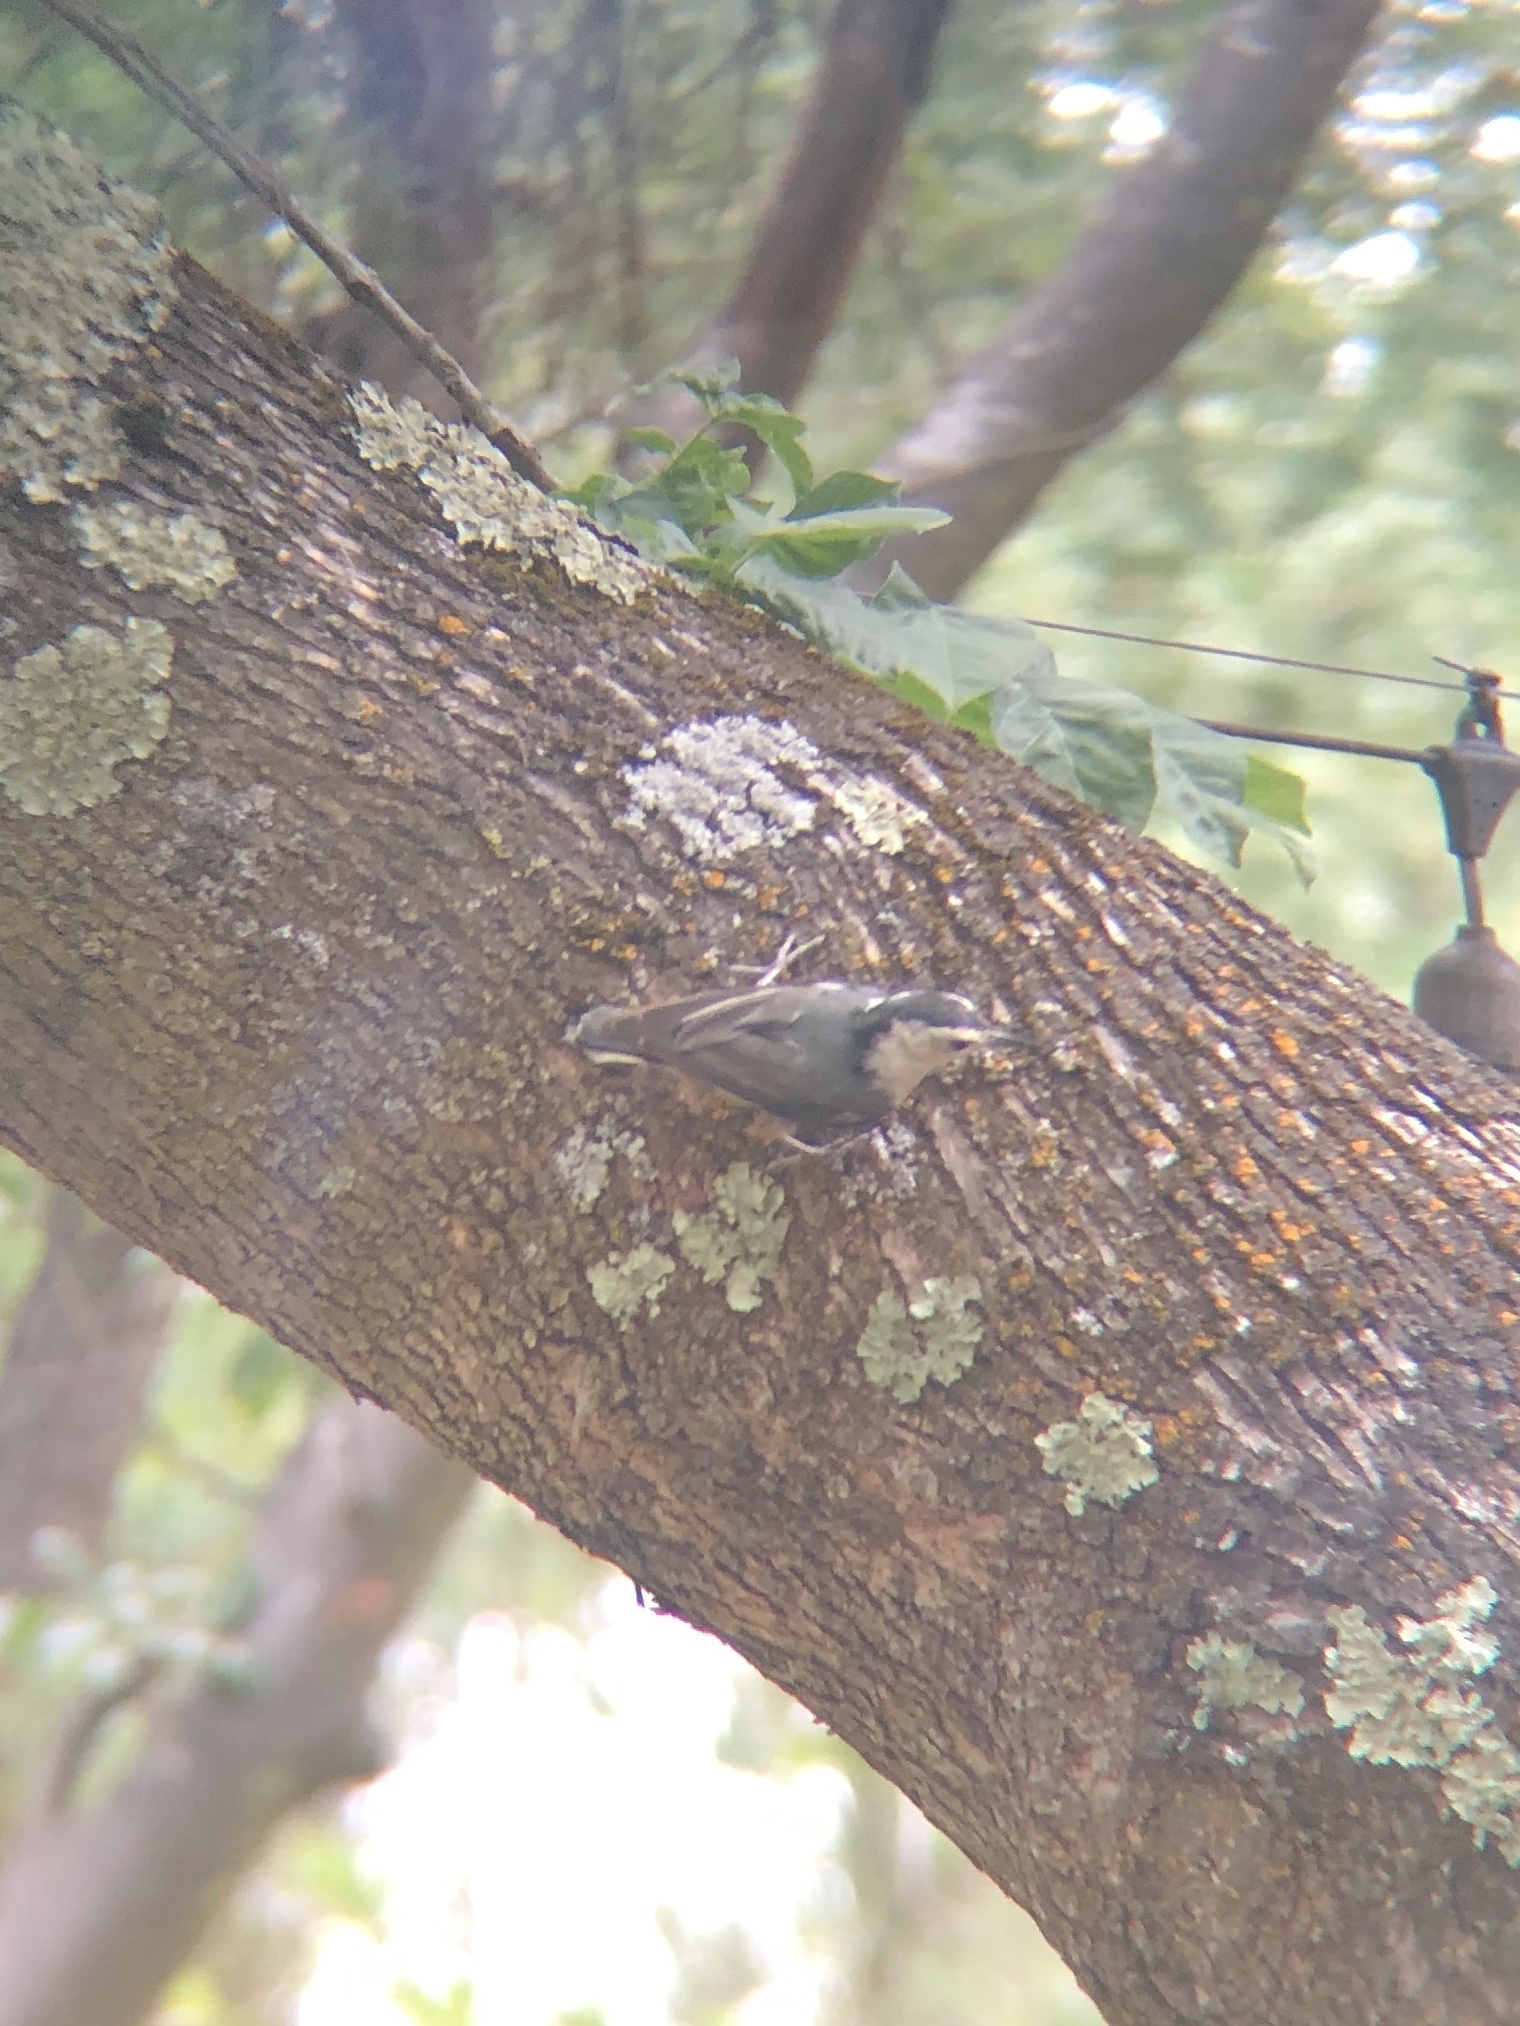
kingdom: Animalia
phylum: Chordata
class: Aves
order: Passeriformes
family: Sittidae
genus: Sitta
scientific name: Sitta carolinensis
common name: White-breasted nuthatch
